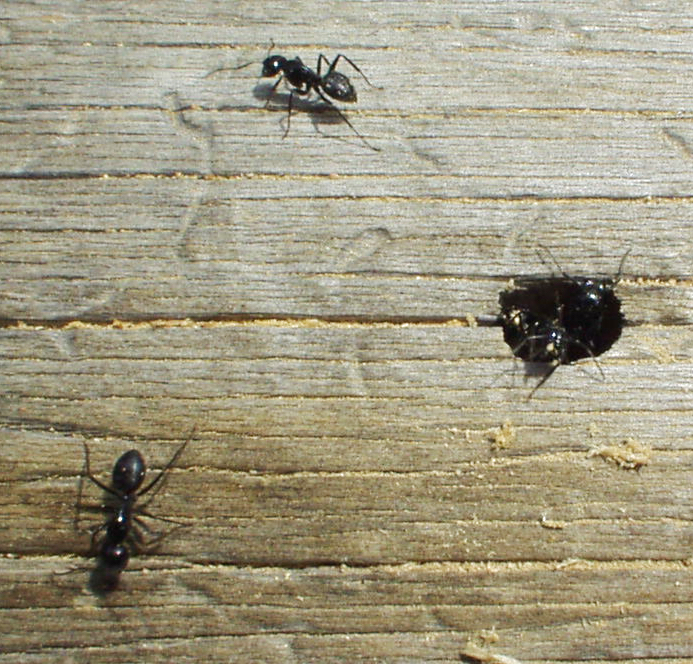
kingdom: Animalia
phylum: Arthropoda
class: Insecta
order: Hymenoptera
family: Formicidae
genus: Camponotus
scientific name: Camponotus
